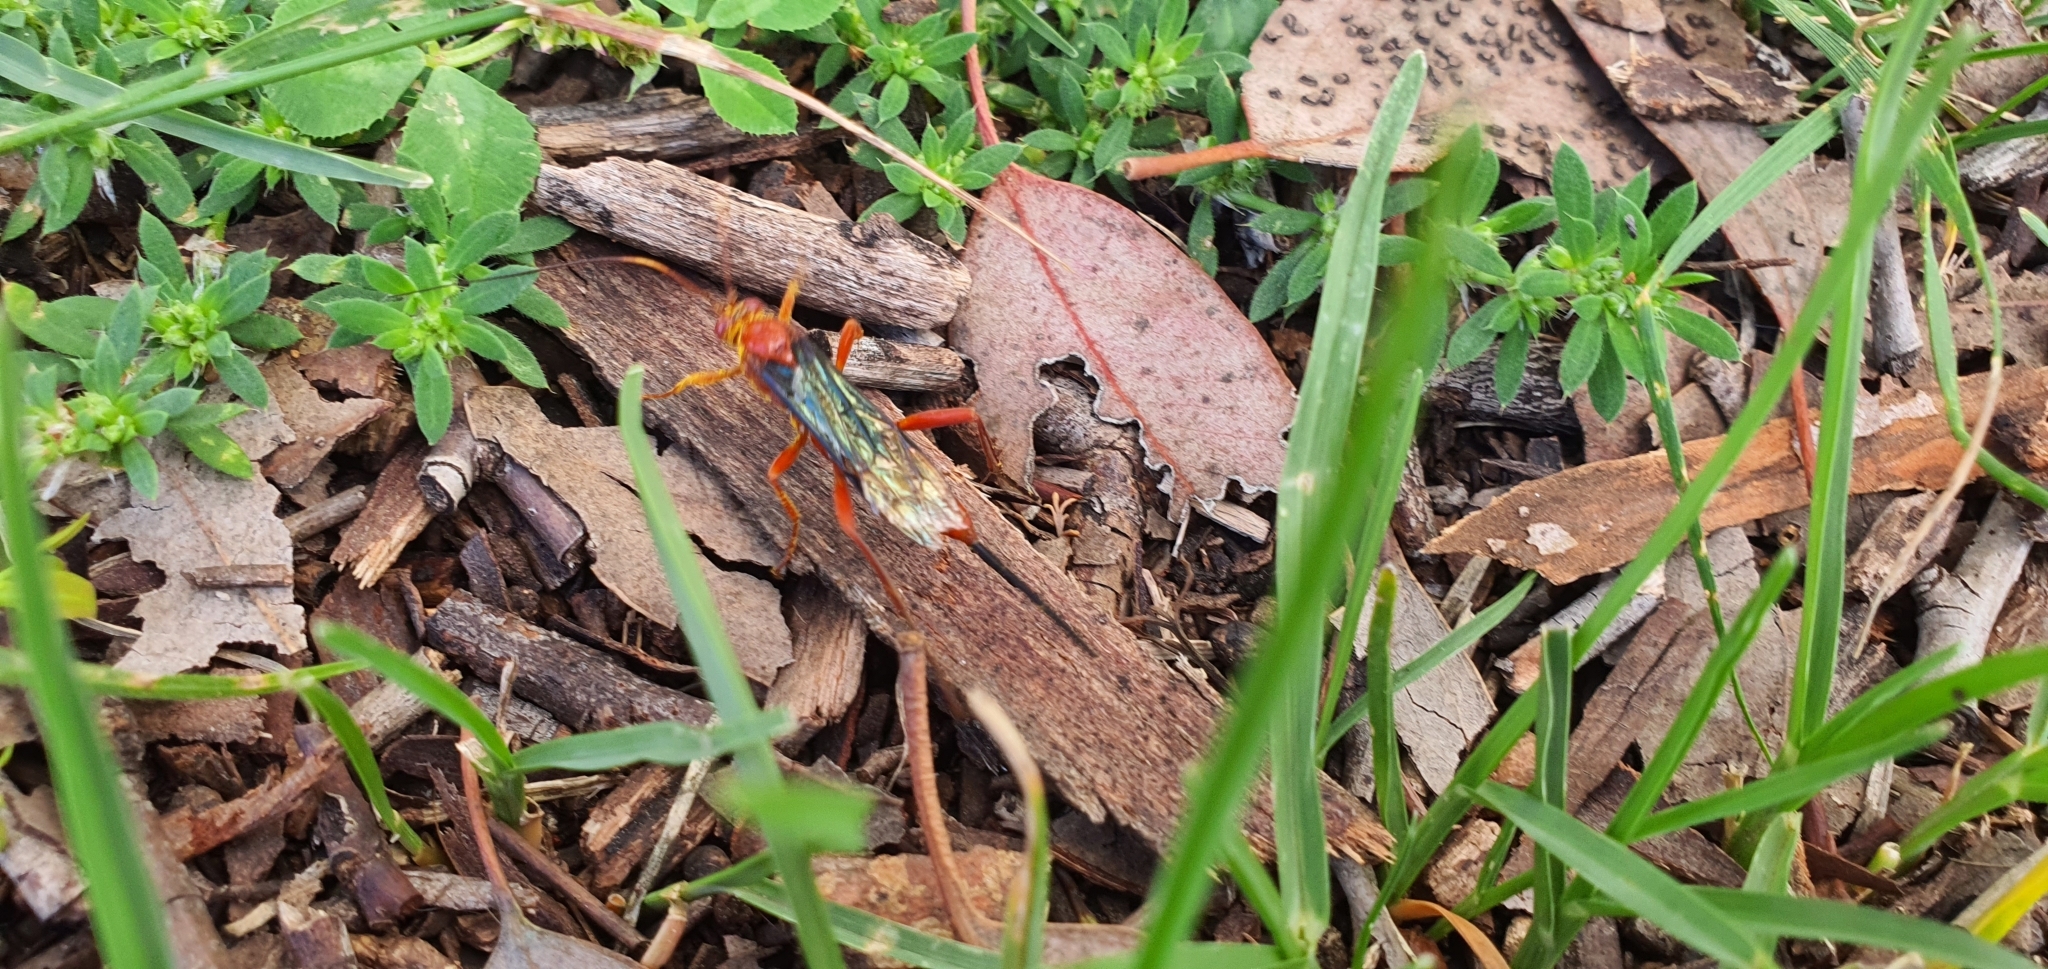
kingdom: Animalia
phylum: Arthropoda
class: Insecta
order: Hymenoptera
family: Ichneumonidae
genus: Lissopimpla
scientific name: Lissopimpla excelsa
